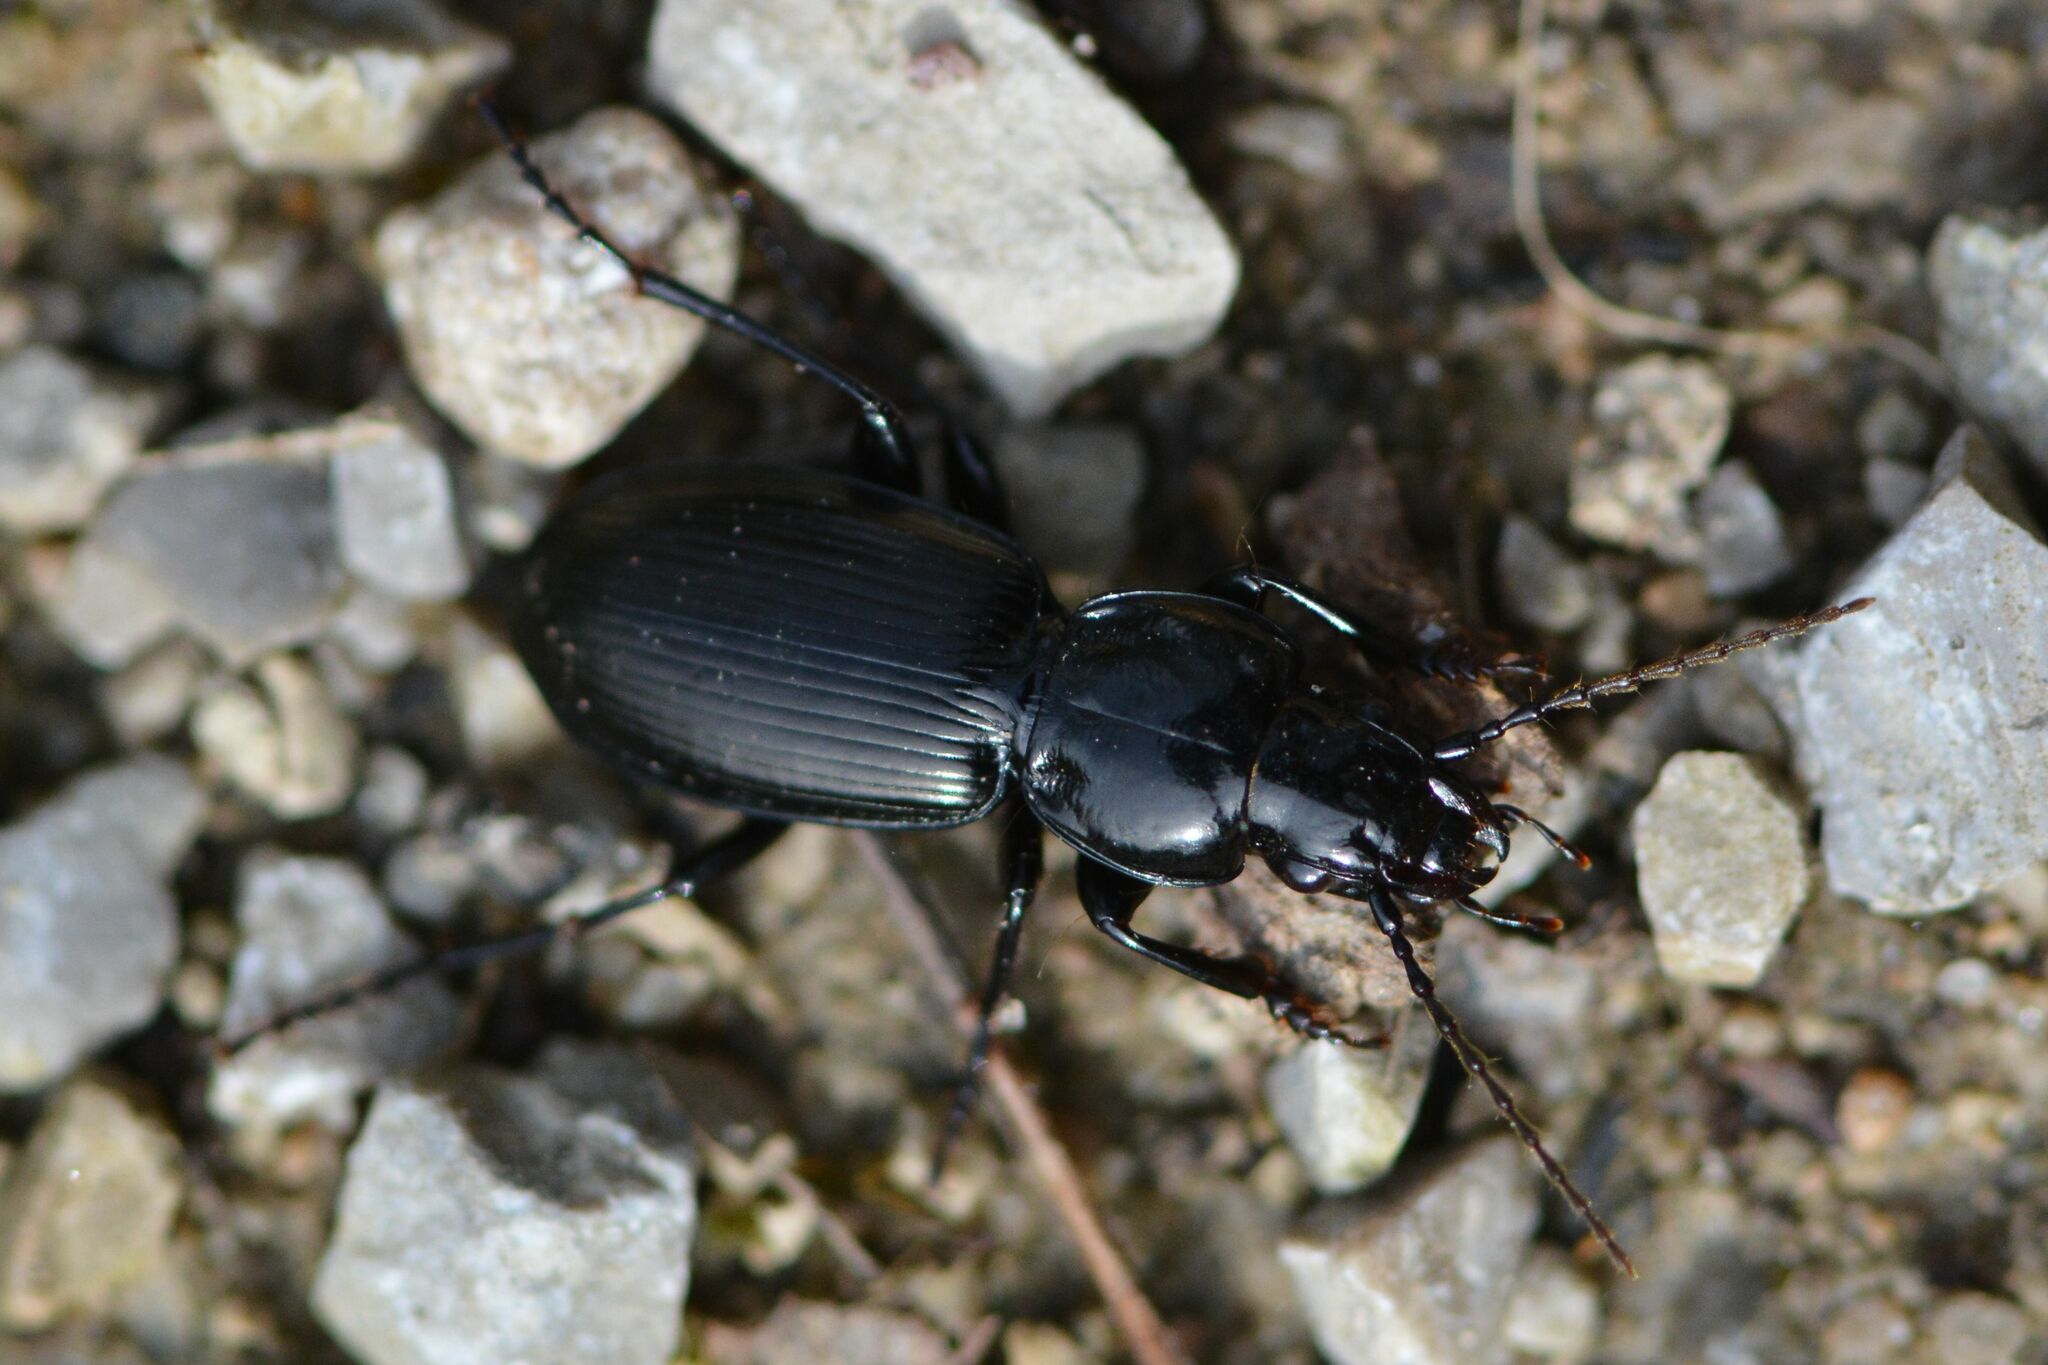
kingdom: Animalia
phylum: Arthropoda
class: Insecta
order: Coleoptera
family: Carabidae
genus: Pterostichus
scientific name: Pterostichus madidus
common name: Black clock
